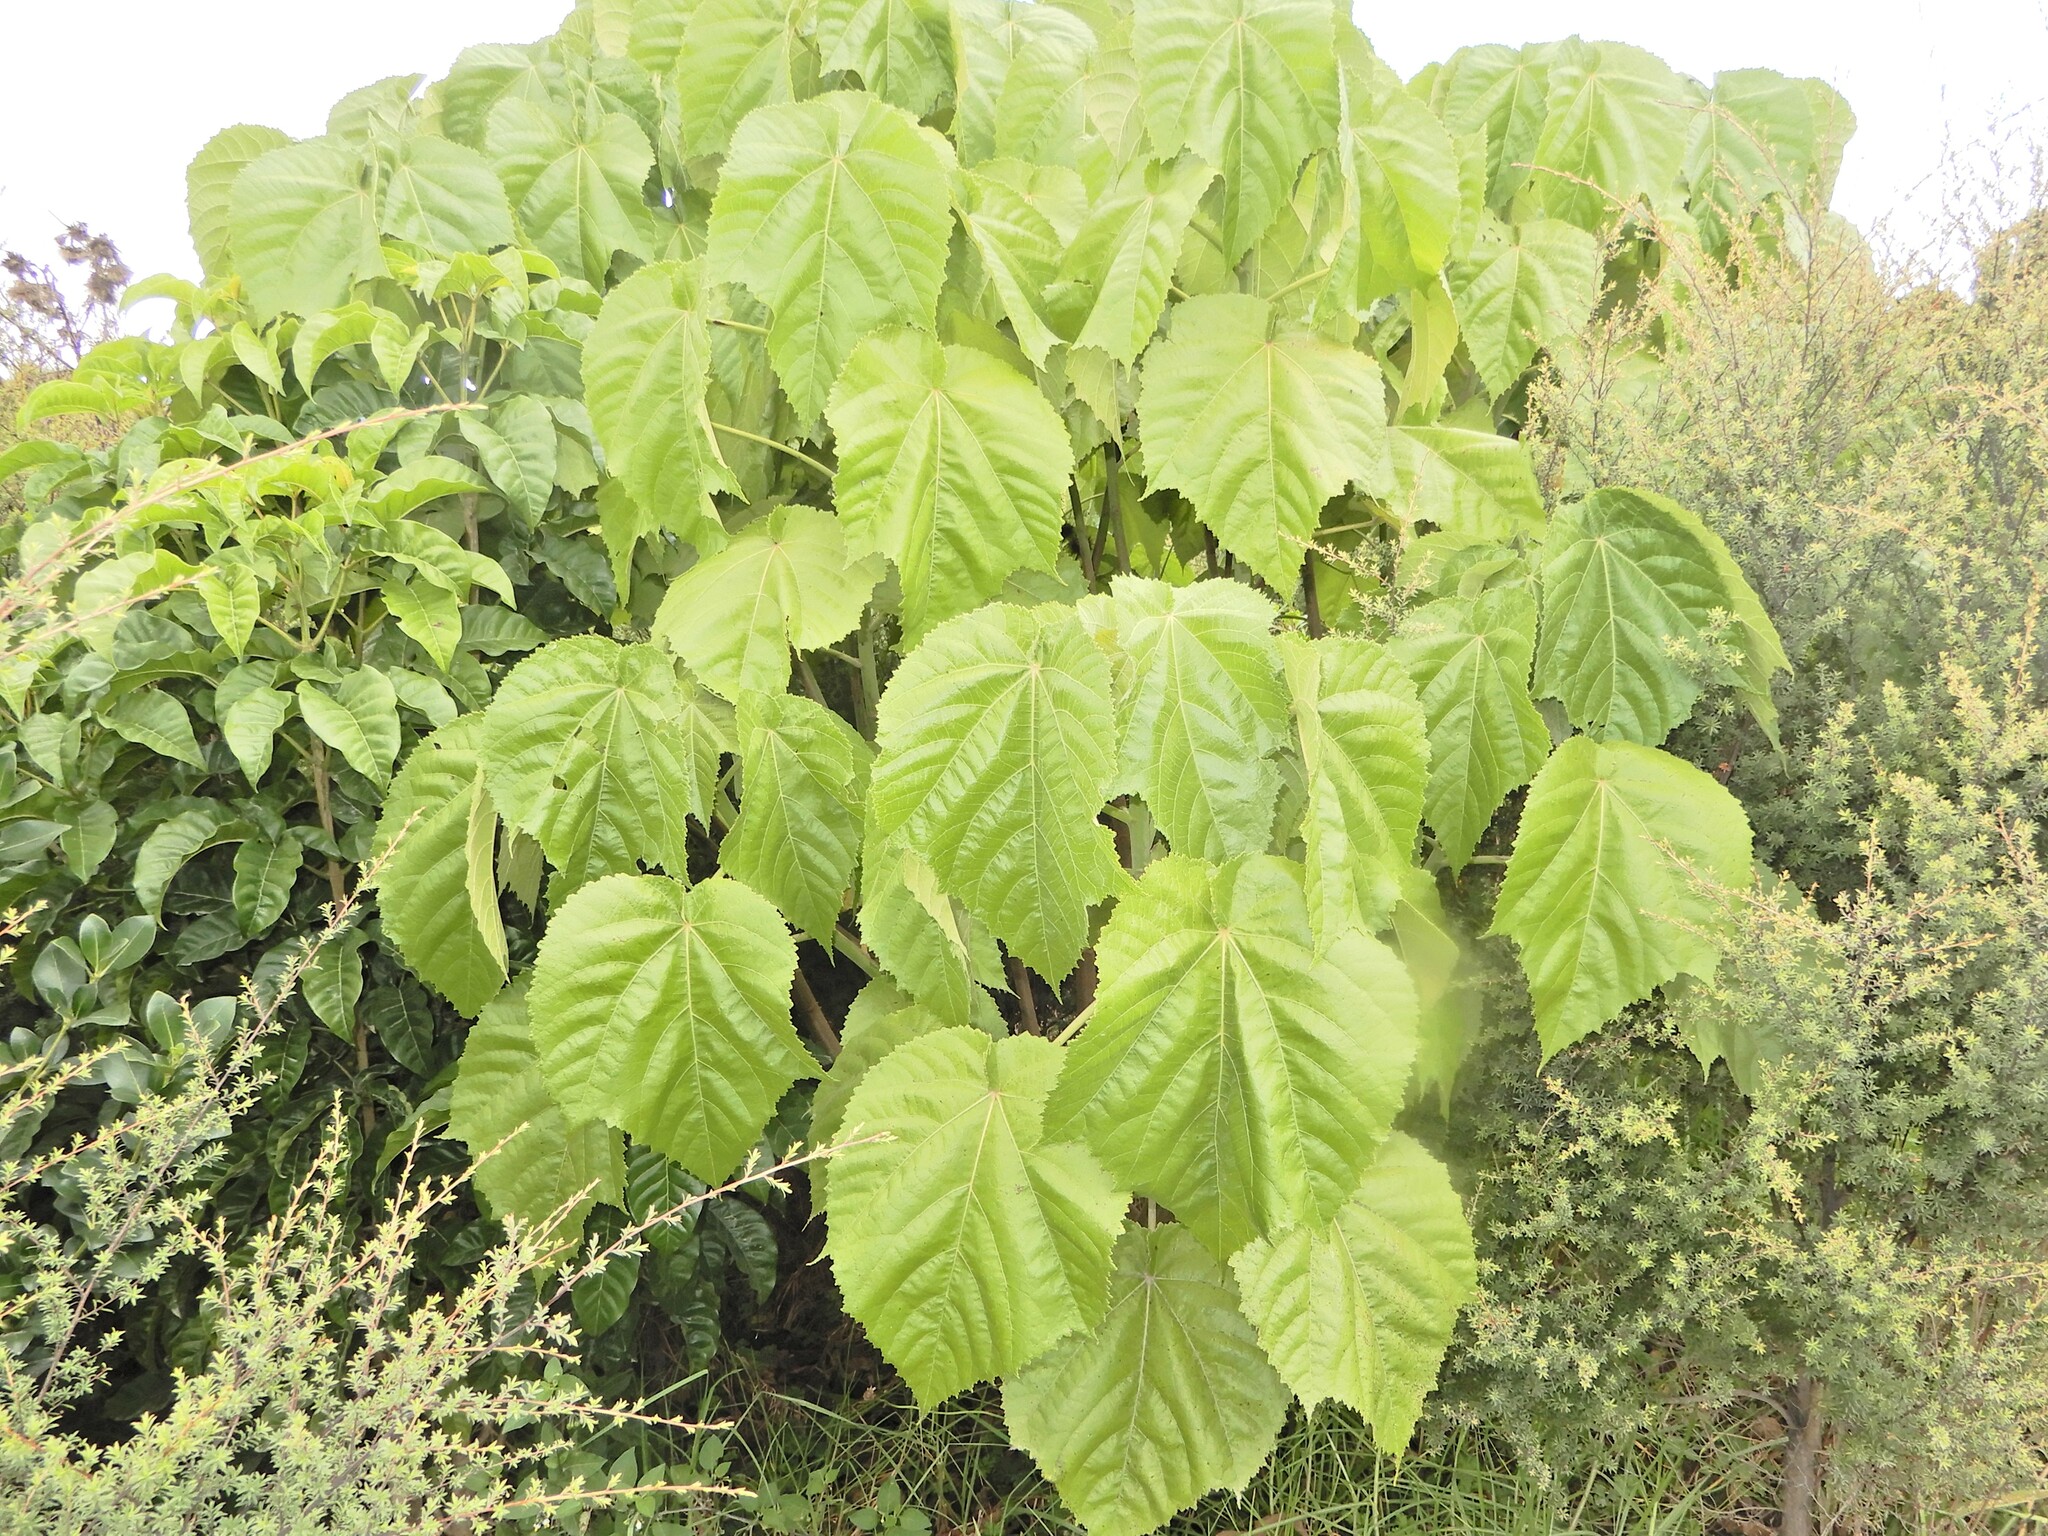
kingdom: Plantae
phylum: Tracheophyta
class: Magnoliopsida
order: Malvales
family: Malvaceae
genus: Entelea
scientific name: Entelea arborescens
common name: New zealand-mulberry
